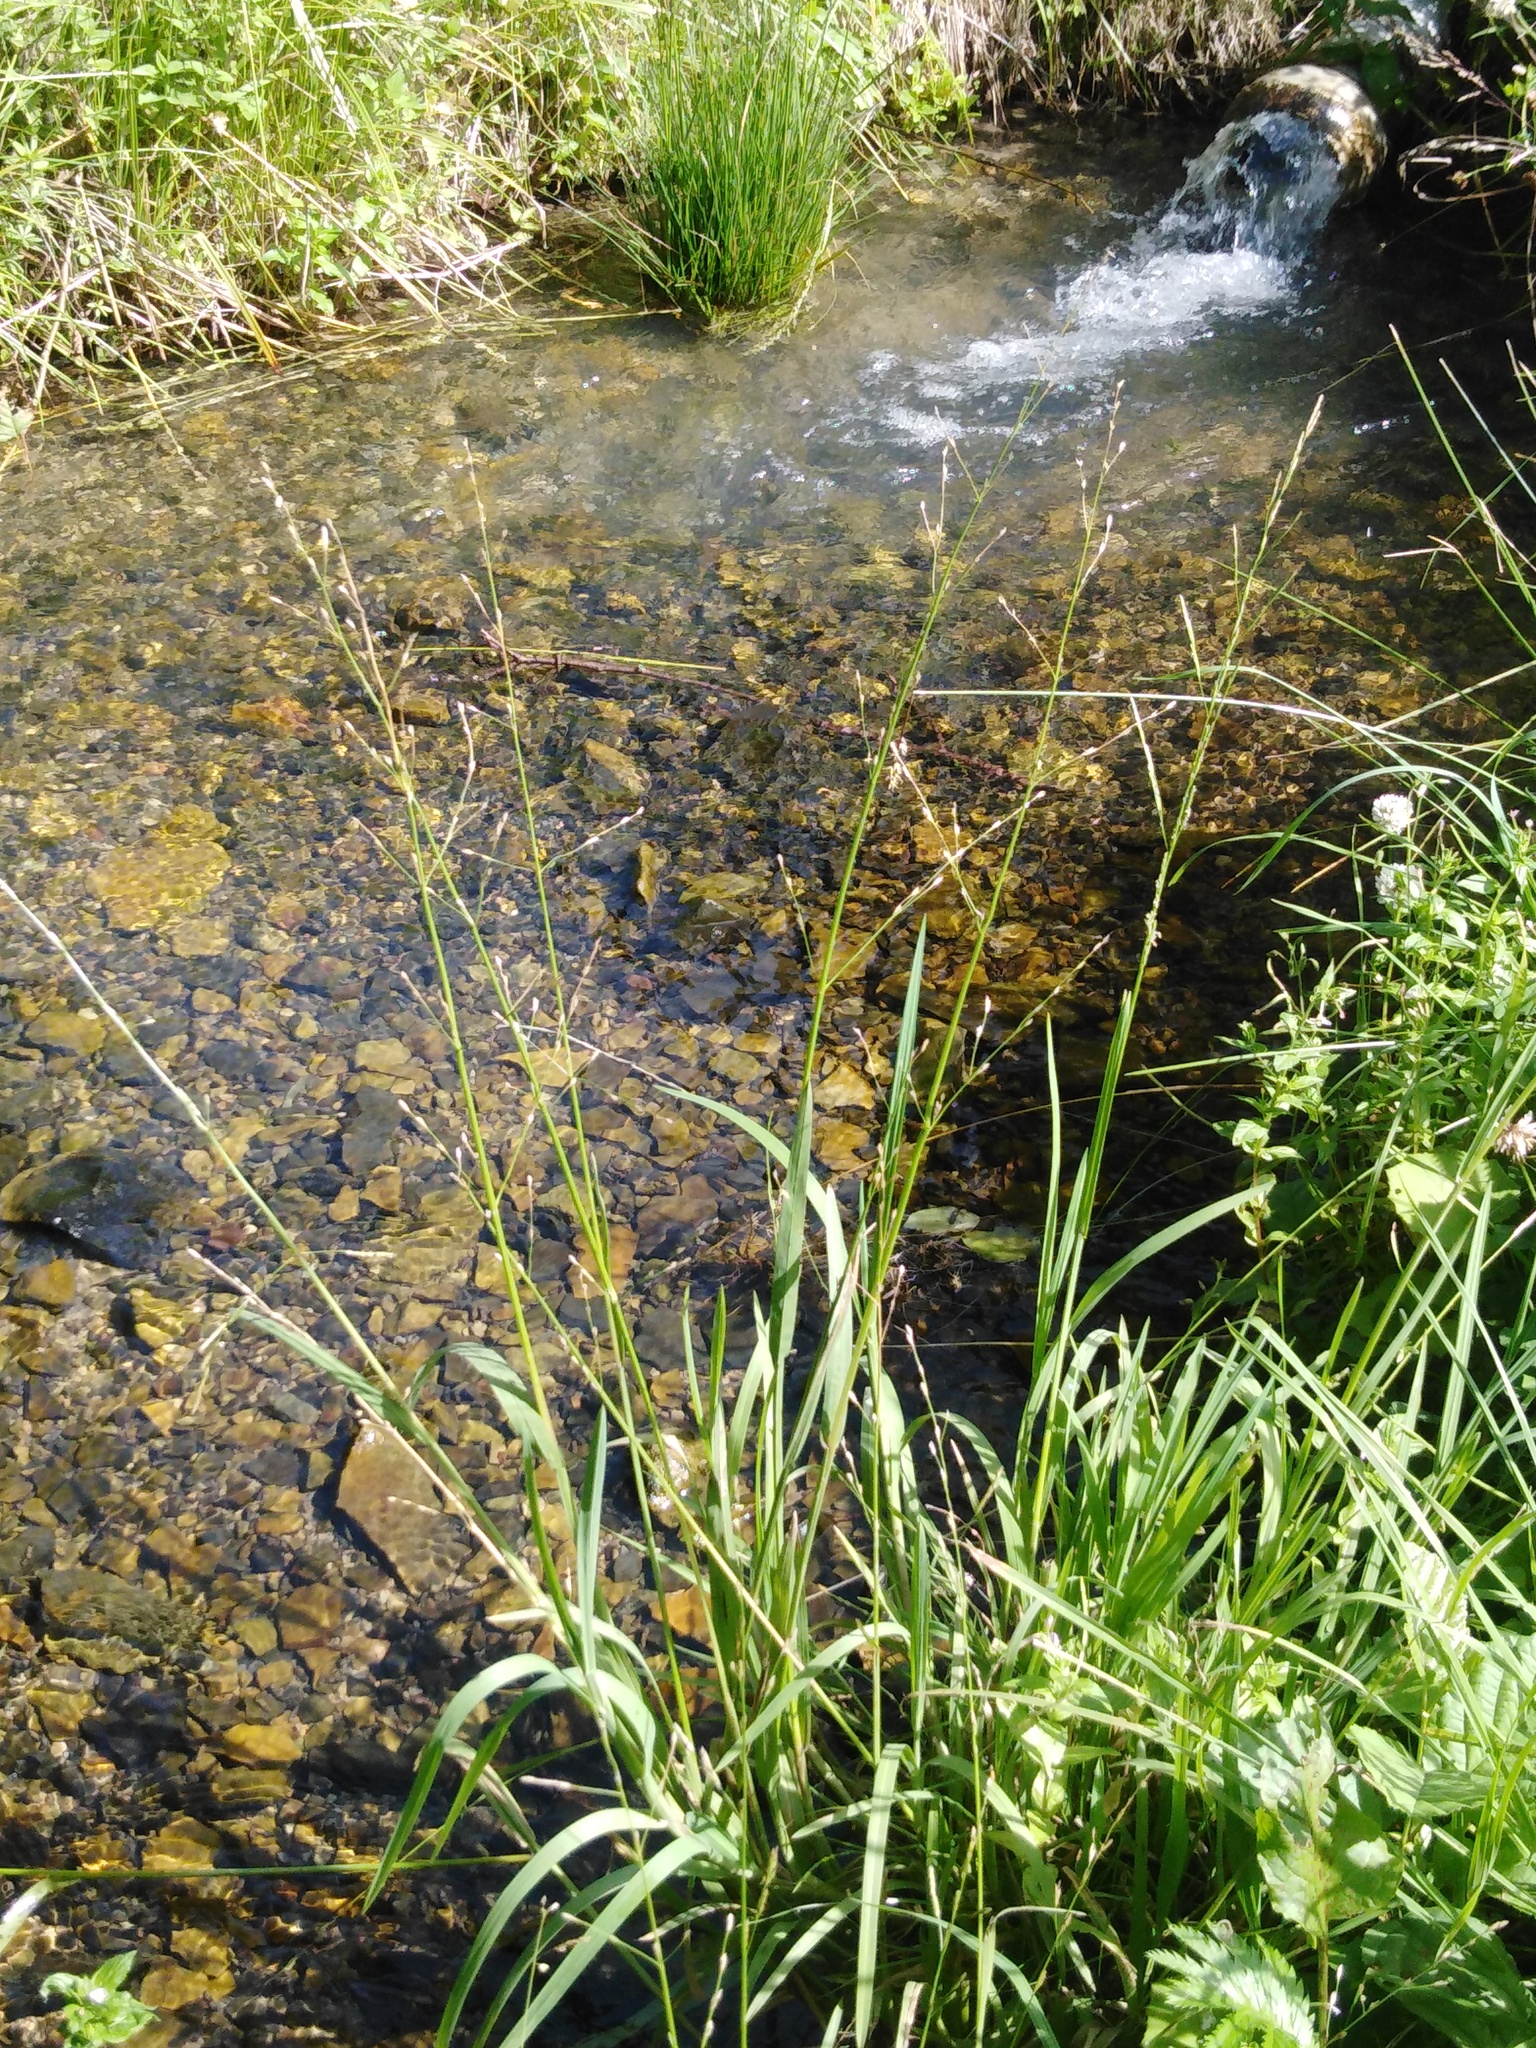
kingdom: Plantae
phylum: Tracheophyta
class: Liliopsida
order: Poales
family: Poaceae
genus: Glyceria
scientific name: Glyceria notata
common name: Plicate sweet-grass
